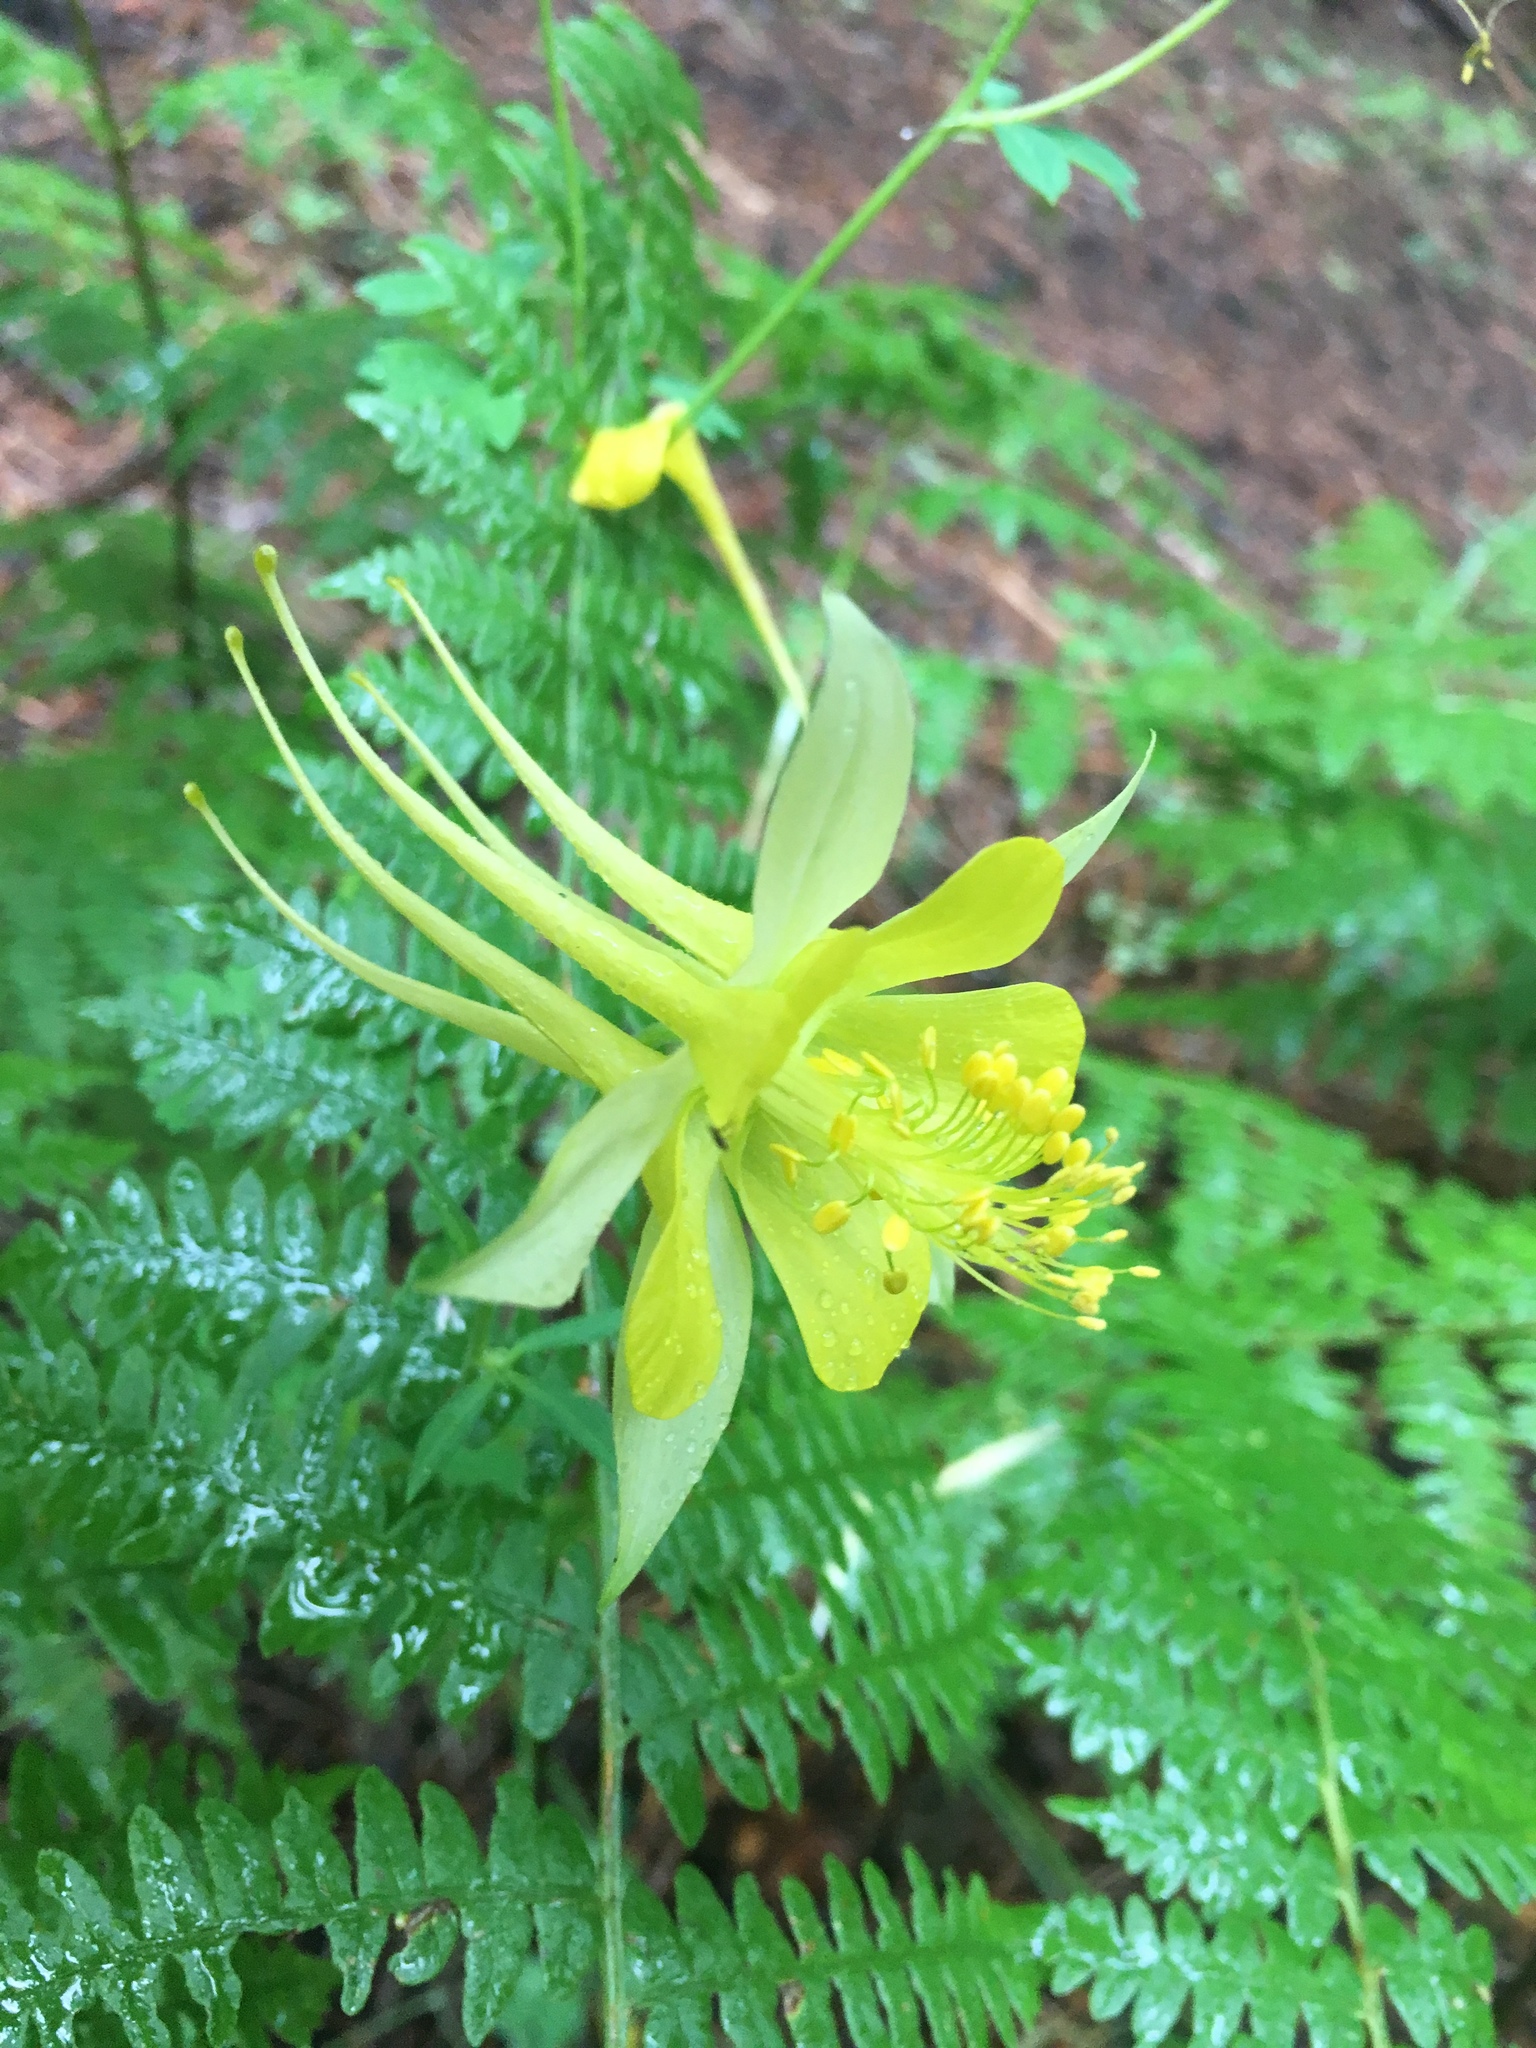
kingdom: Plantae
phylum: Tracheophyta
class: Magnoliopsida
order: Ranunculales
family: Ranunculaceae
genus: Aquilegia
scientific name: Aquilegia chrysantha
